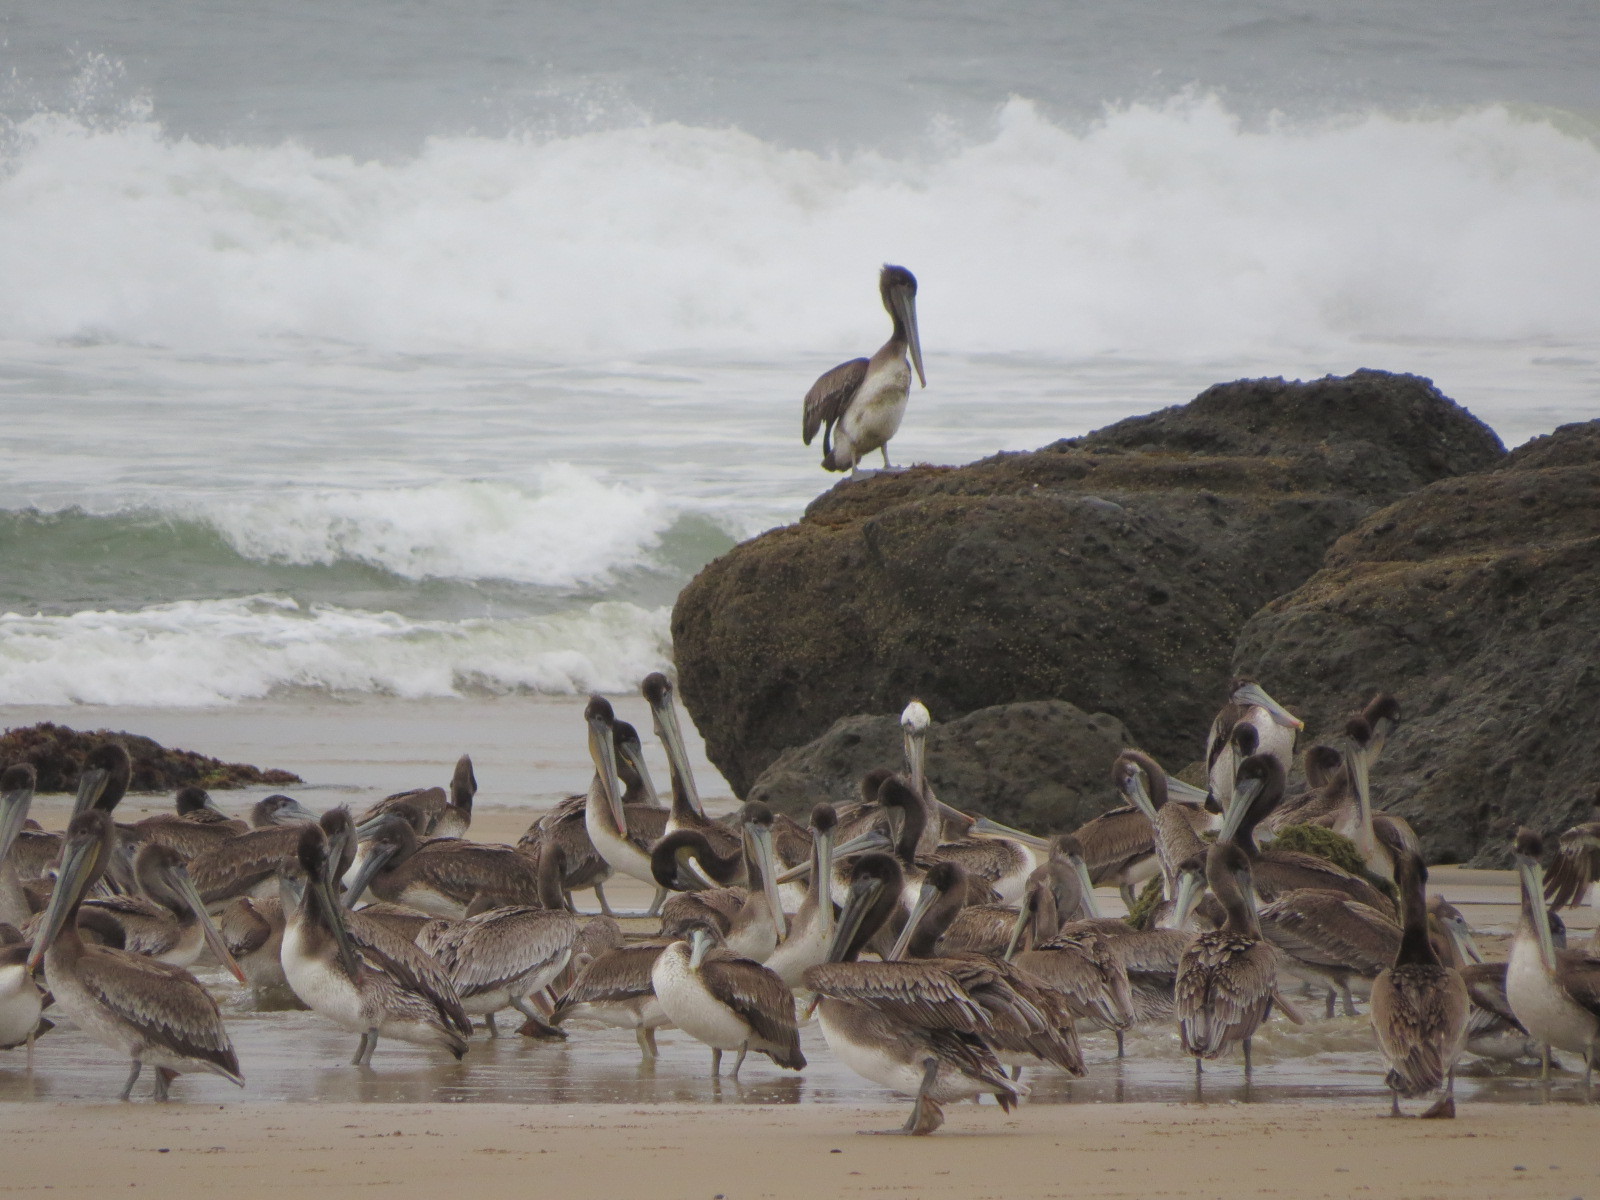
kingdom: Animalia
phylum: Chordata
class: Aves
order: Pelecaniformes
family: Pelecanidae
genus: Pelecanus
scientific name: Pelecanus occidentalis
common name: Brown pelican
